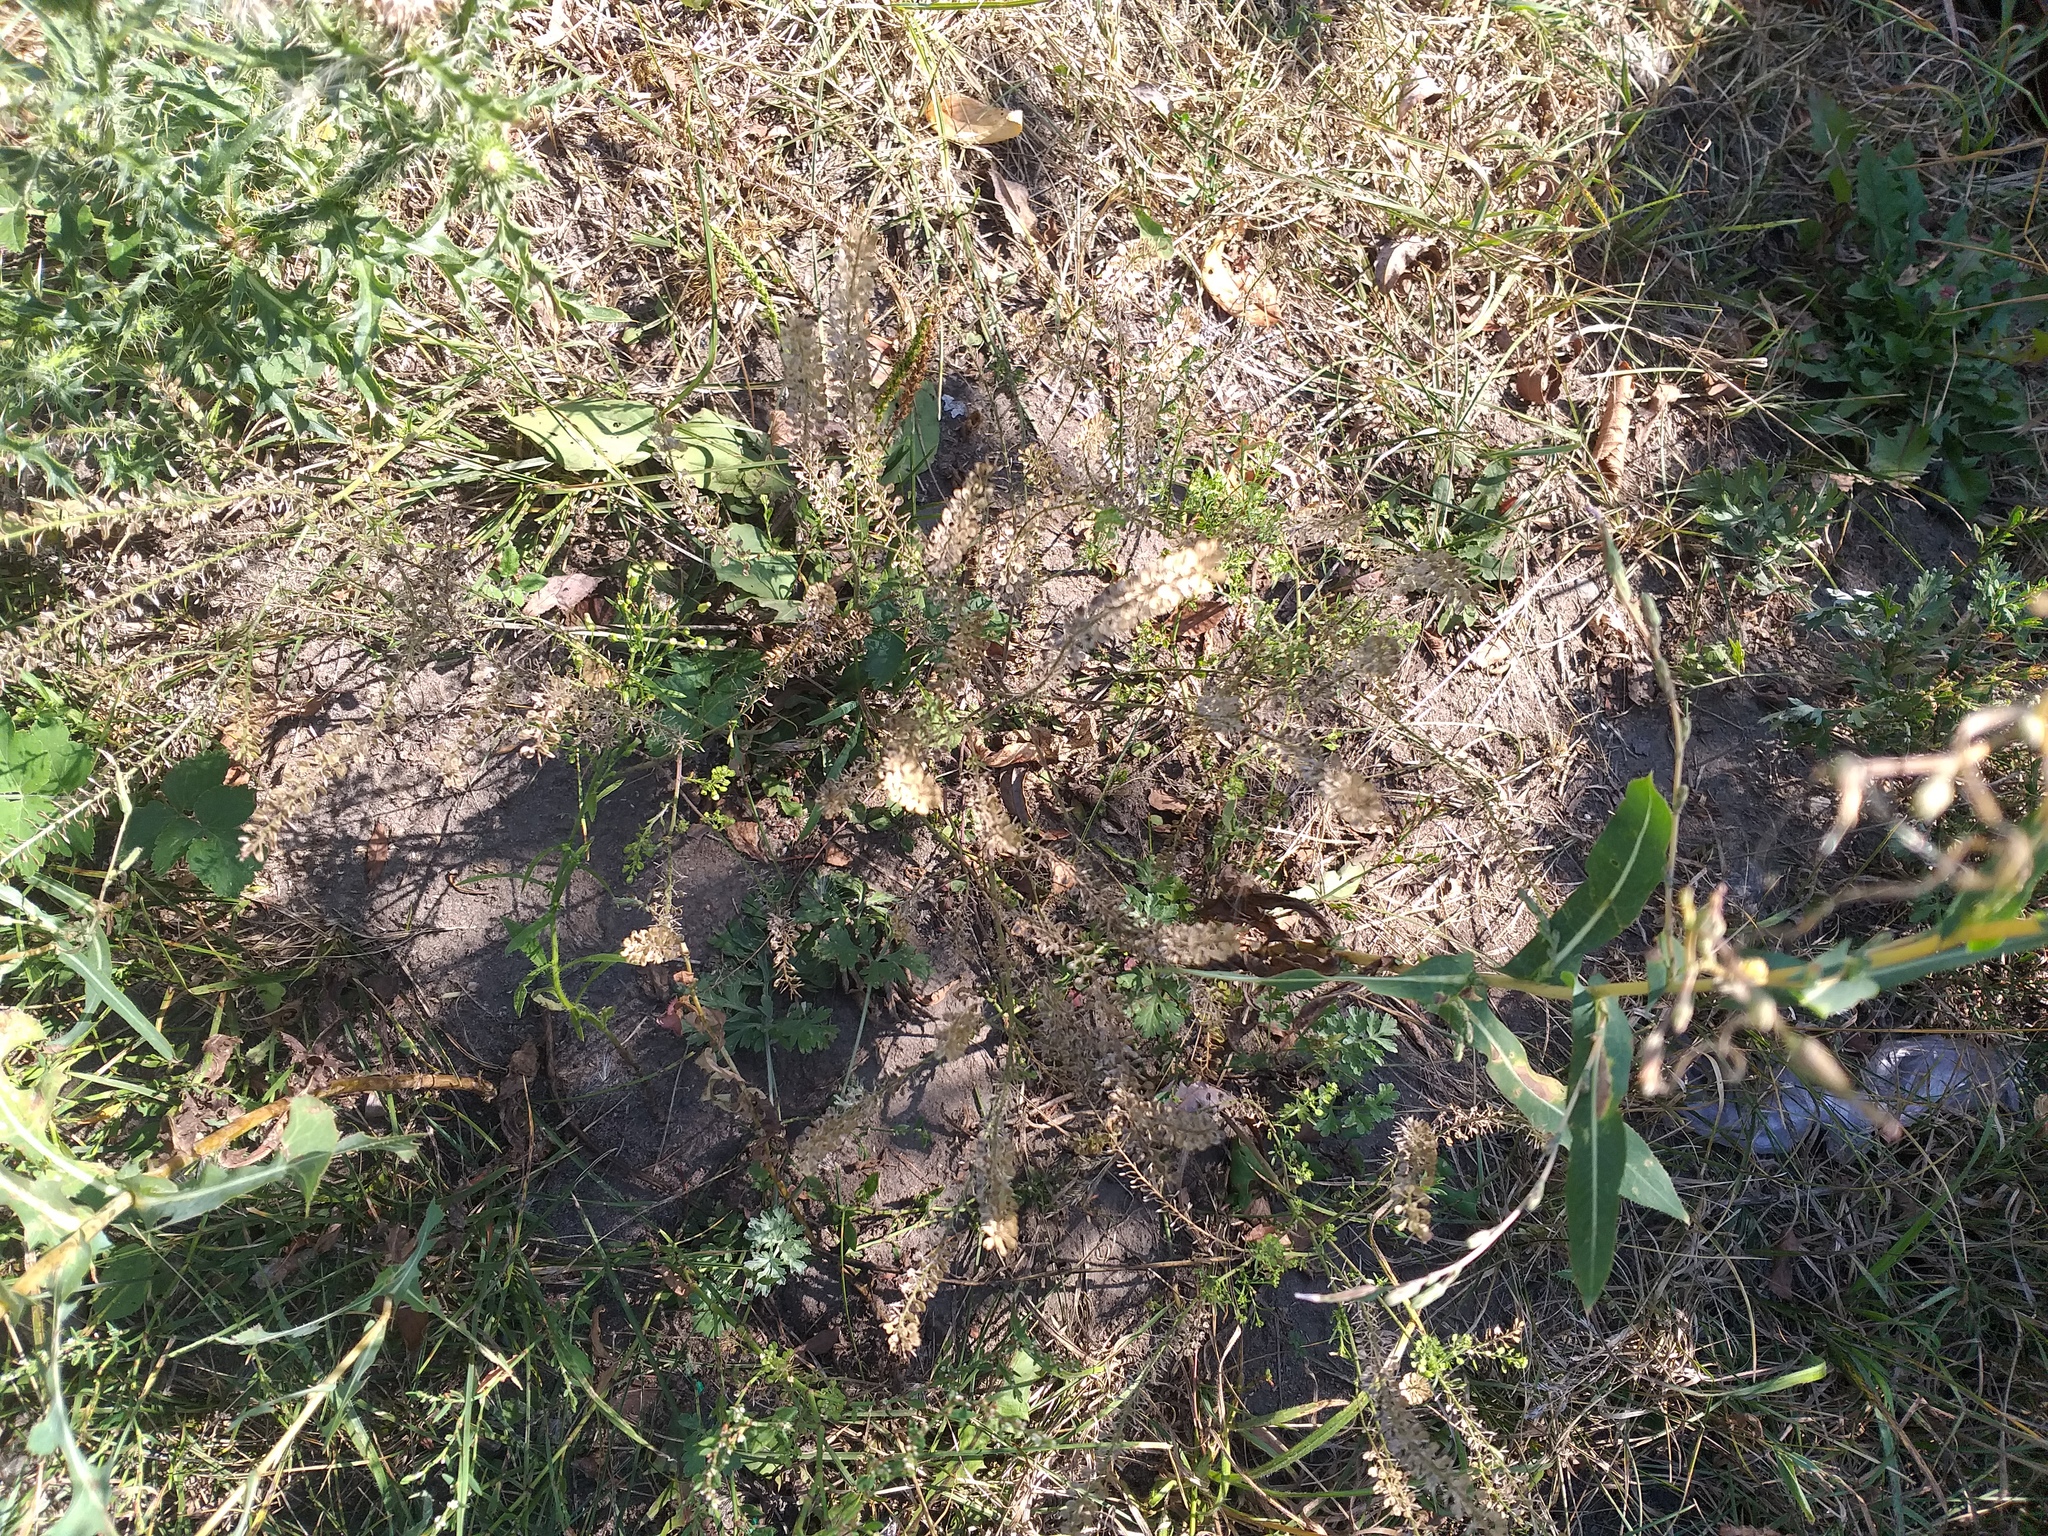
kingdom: Plantae
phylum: Tracheophyta
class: Magnoliopsida
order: Brassicales
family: Brassicaceae
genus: Lepidium
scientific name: Lepidium densiflorum
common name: Miner's pepperwort
